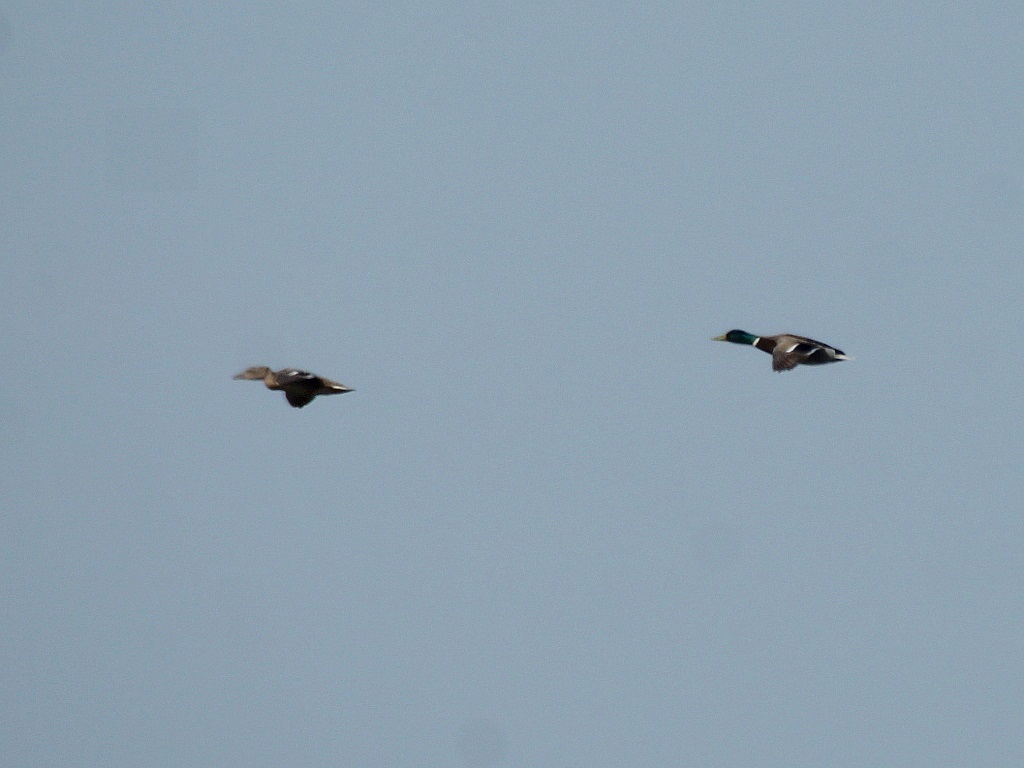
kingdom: Animalia
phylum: Chordata
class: Aves
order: Anseriformes
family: Anatidae
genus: Anas
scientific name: Anas platyrhynchos
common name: Mallard
